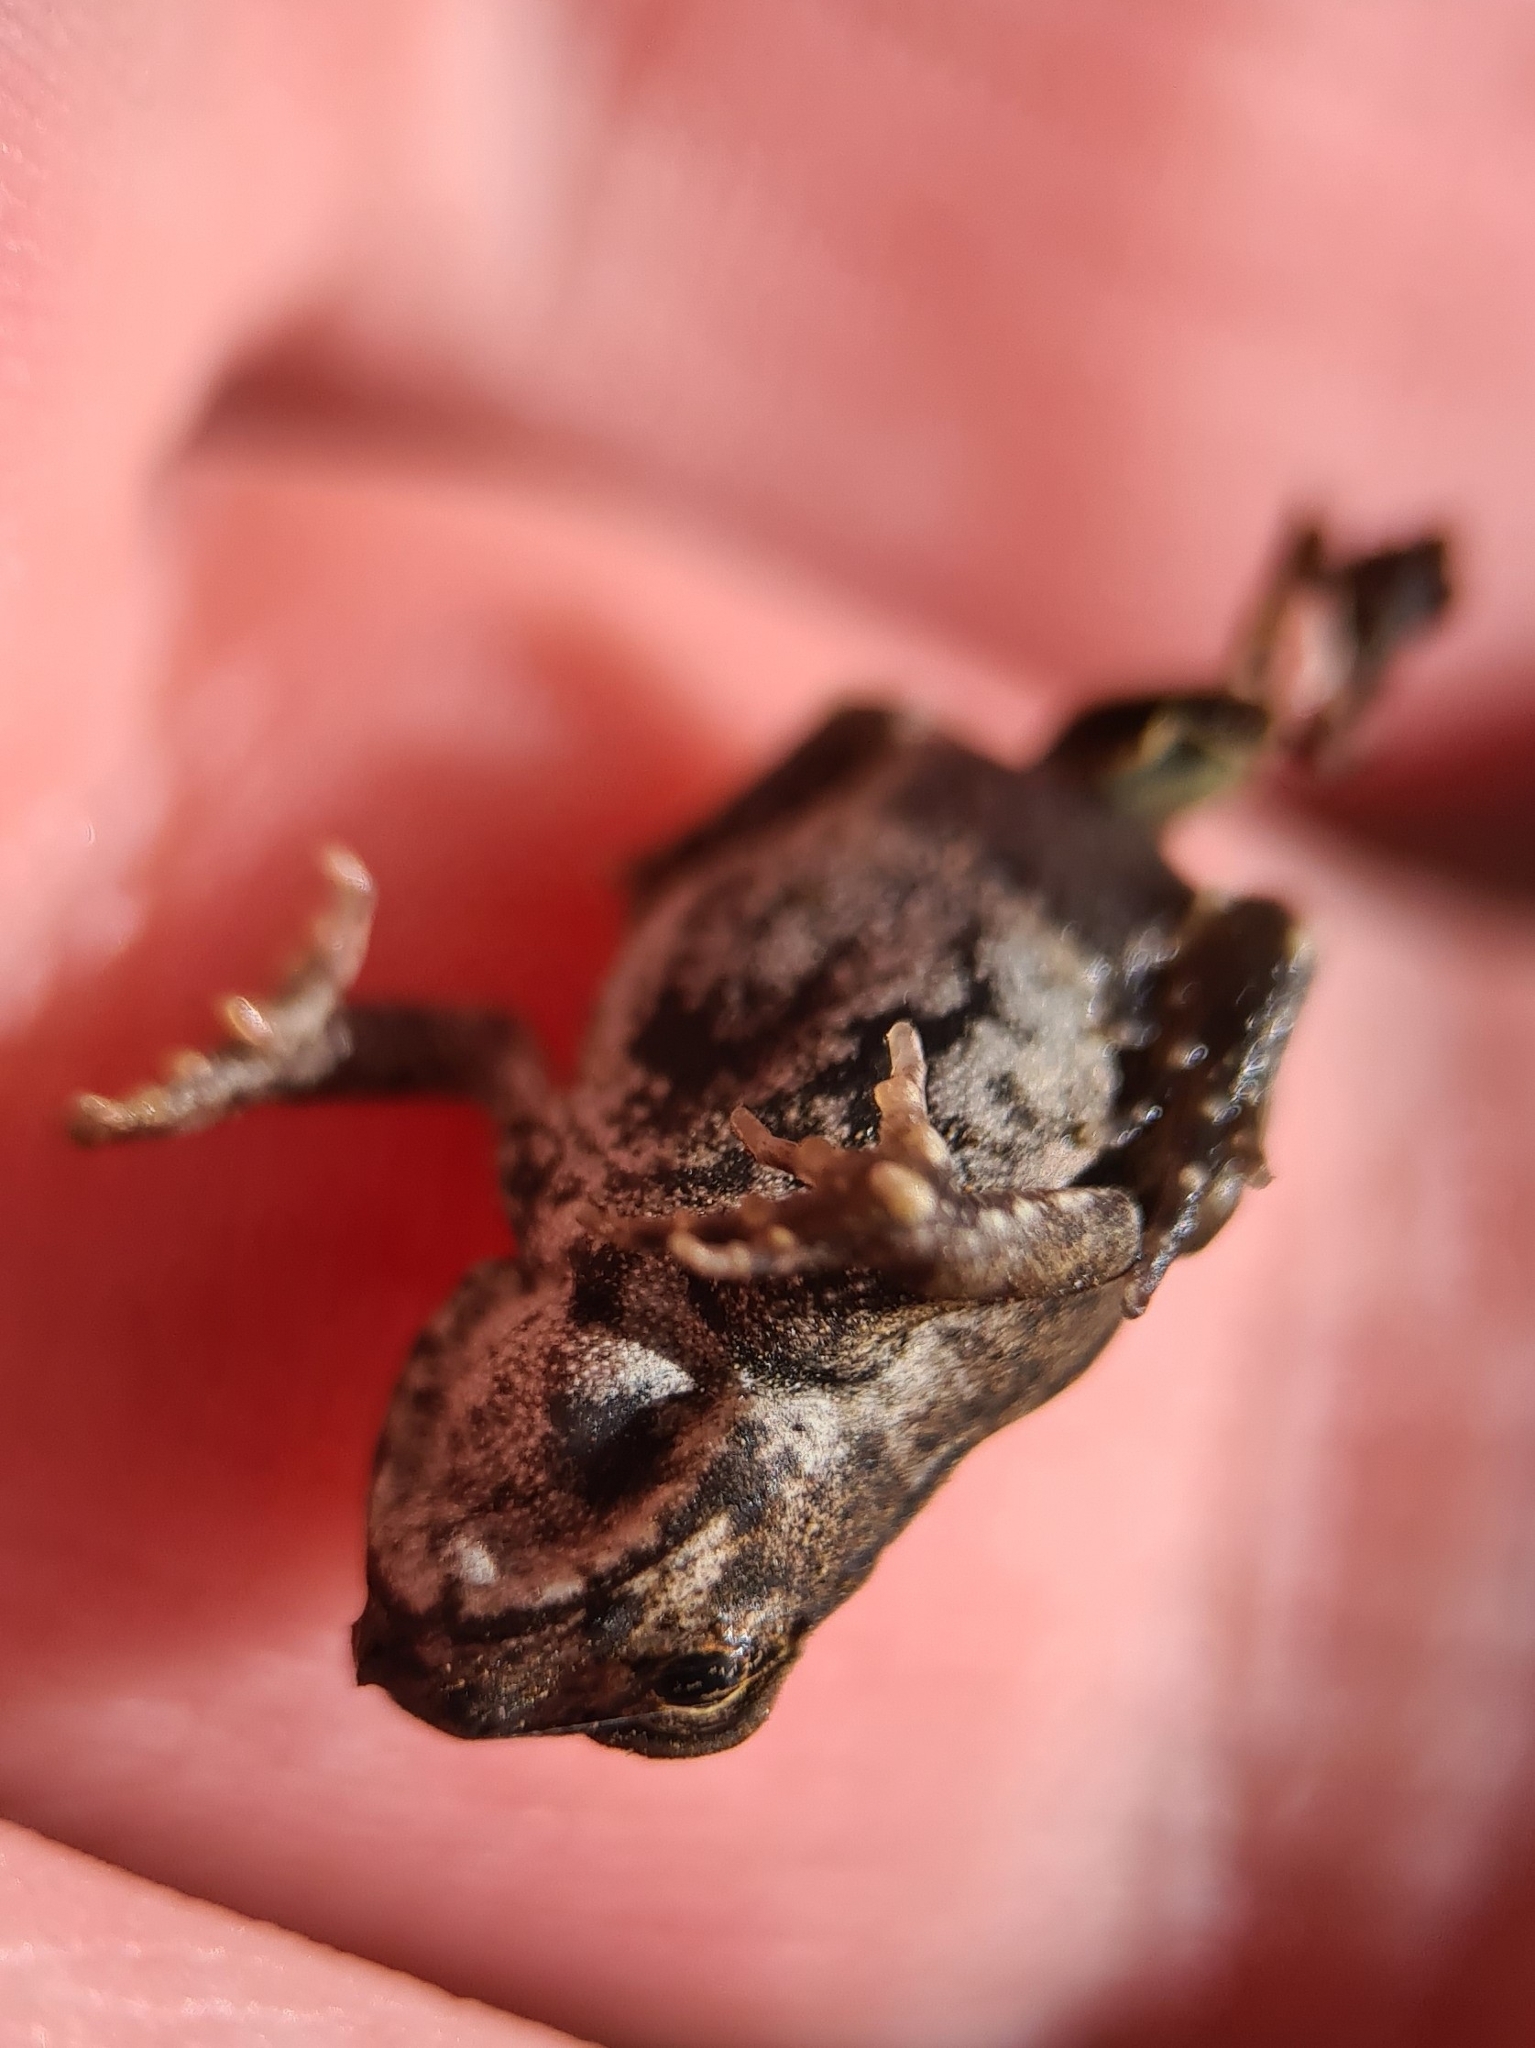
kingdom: Animalia
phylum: Chordata
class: Amphibia
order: Anura
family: Bufonidae
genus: Rhinella
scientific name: Rhinella marina
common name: Cane toad
